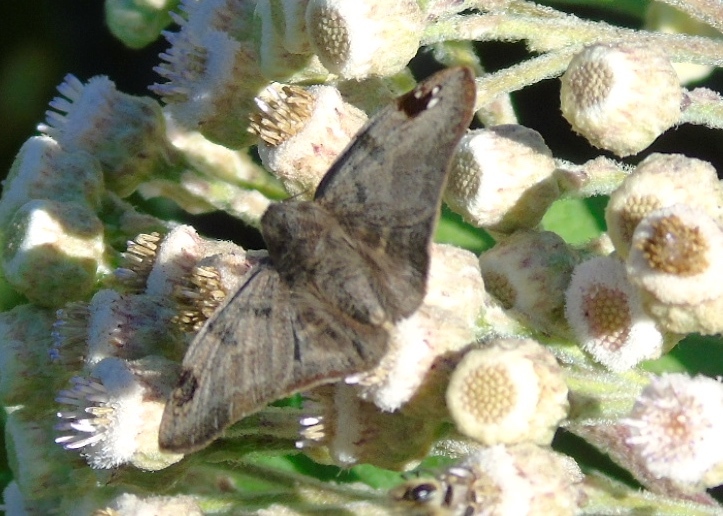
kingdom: Animalia
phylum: Arthropoda
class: Insecta
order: Lepidoptera
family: Hesperiidae
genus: Arteurotia
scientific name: Arteurotia tractipennis
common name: Starred skipper
